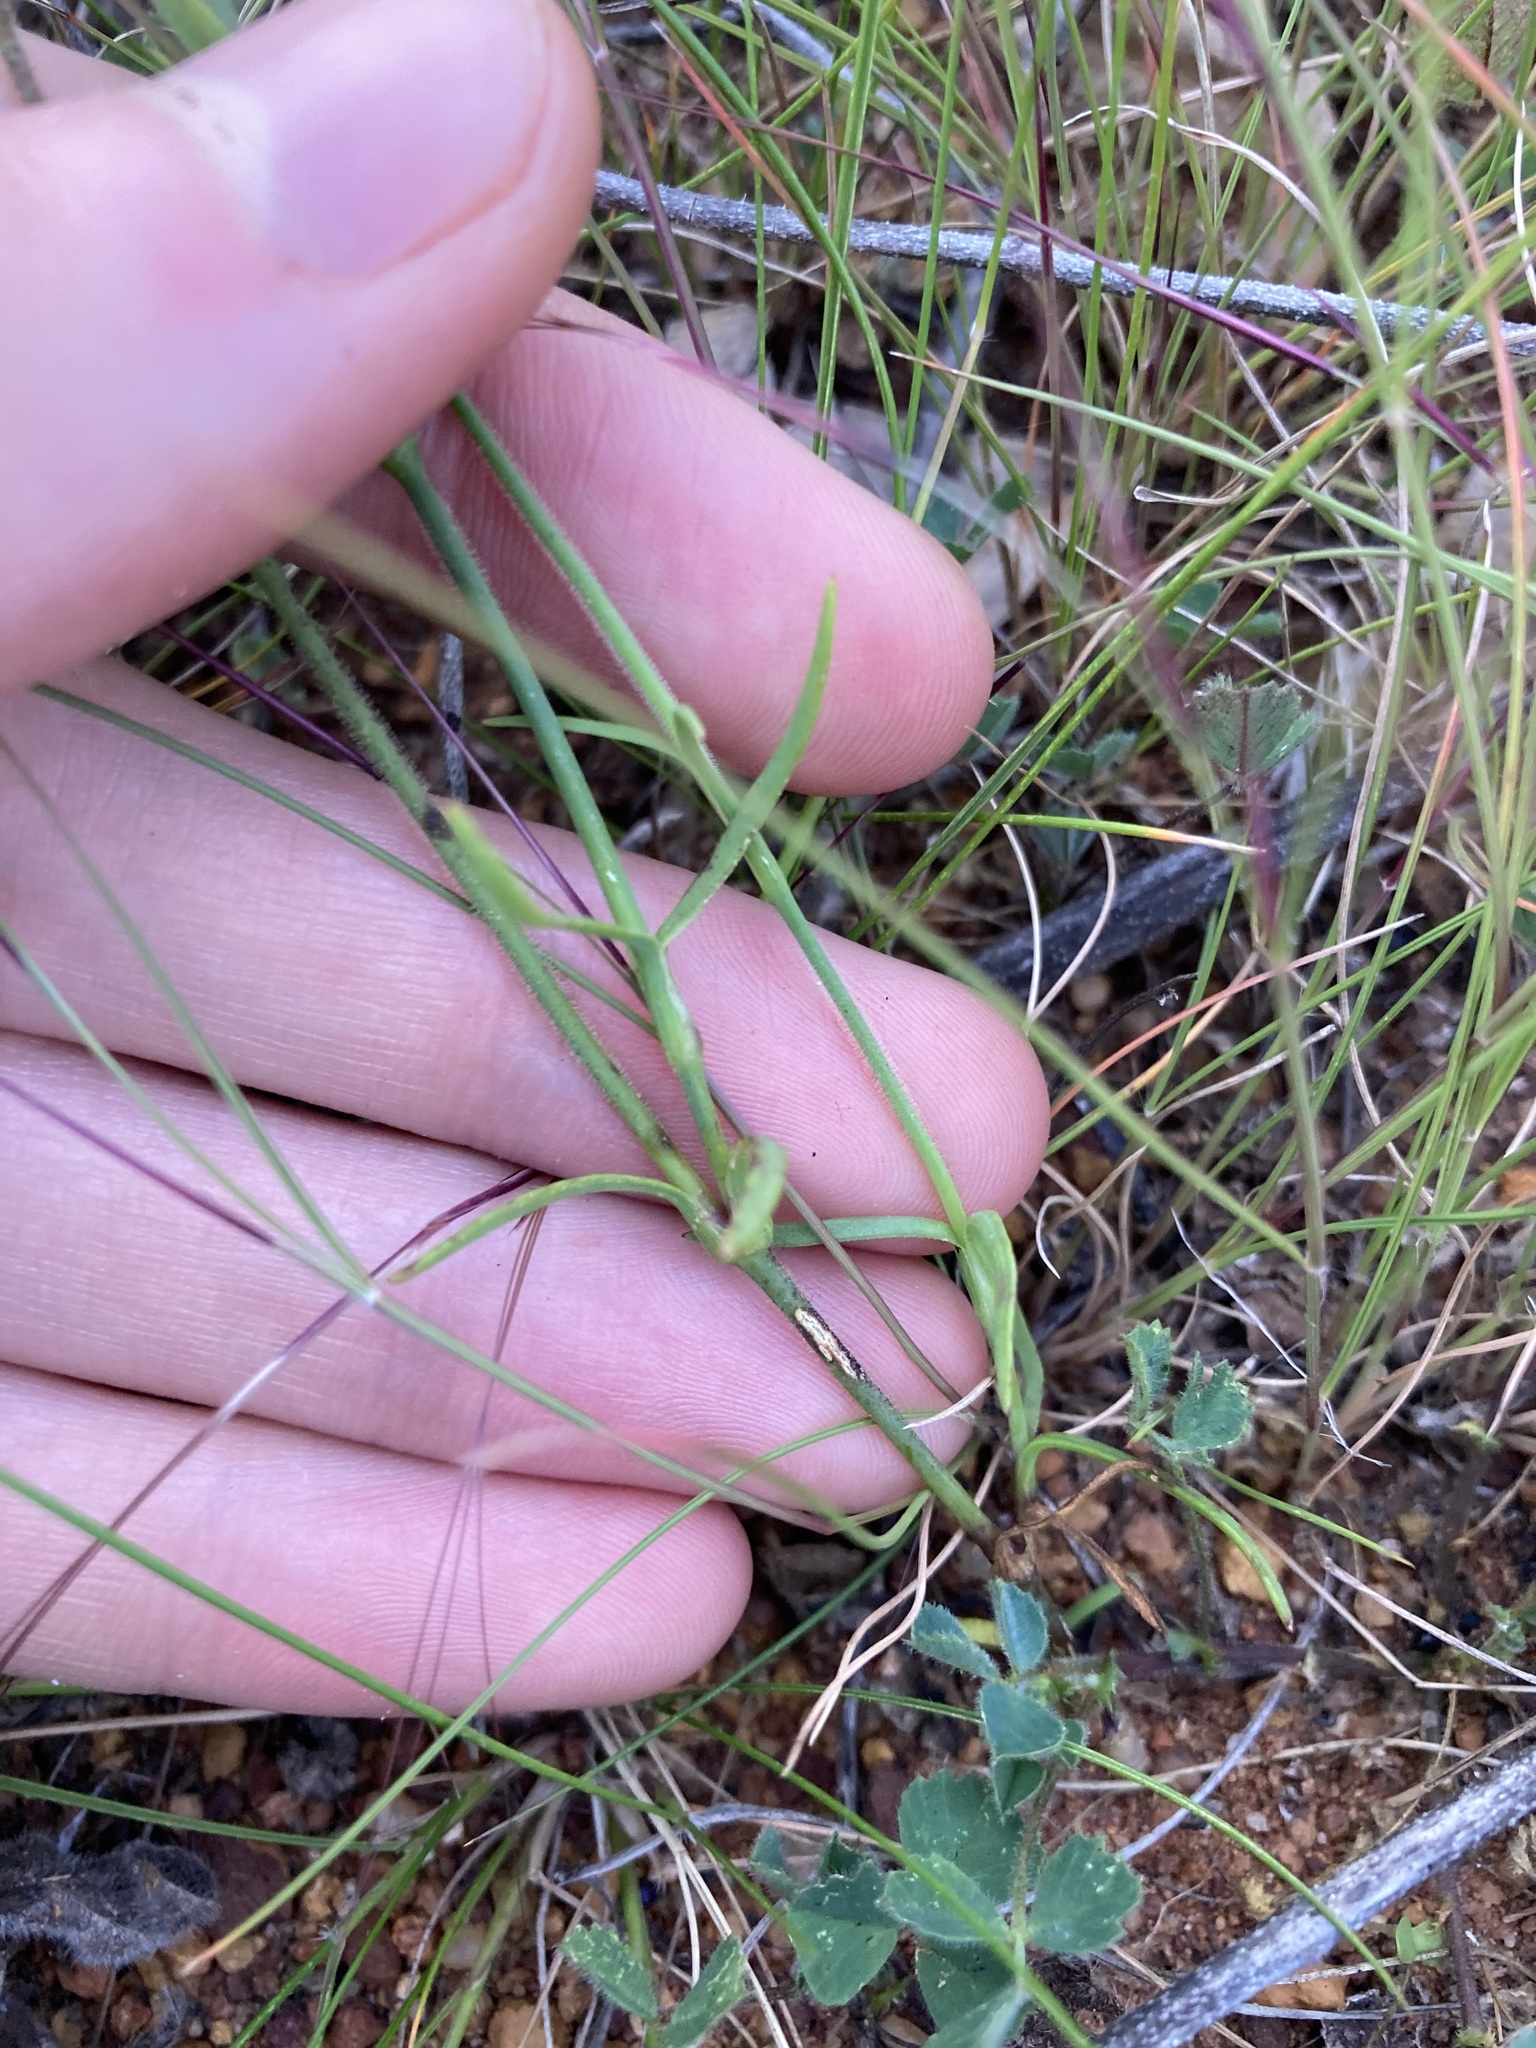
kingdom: Plantae
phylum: Tracheophyta
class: Magnoliopsida
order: Caryophyllales
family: Caryophyllaceae
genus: Petrorhagia
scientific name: Petrorhagia dubia
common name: Hairypink
